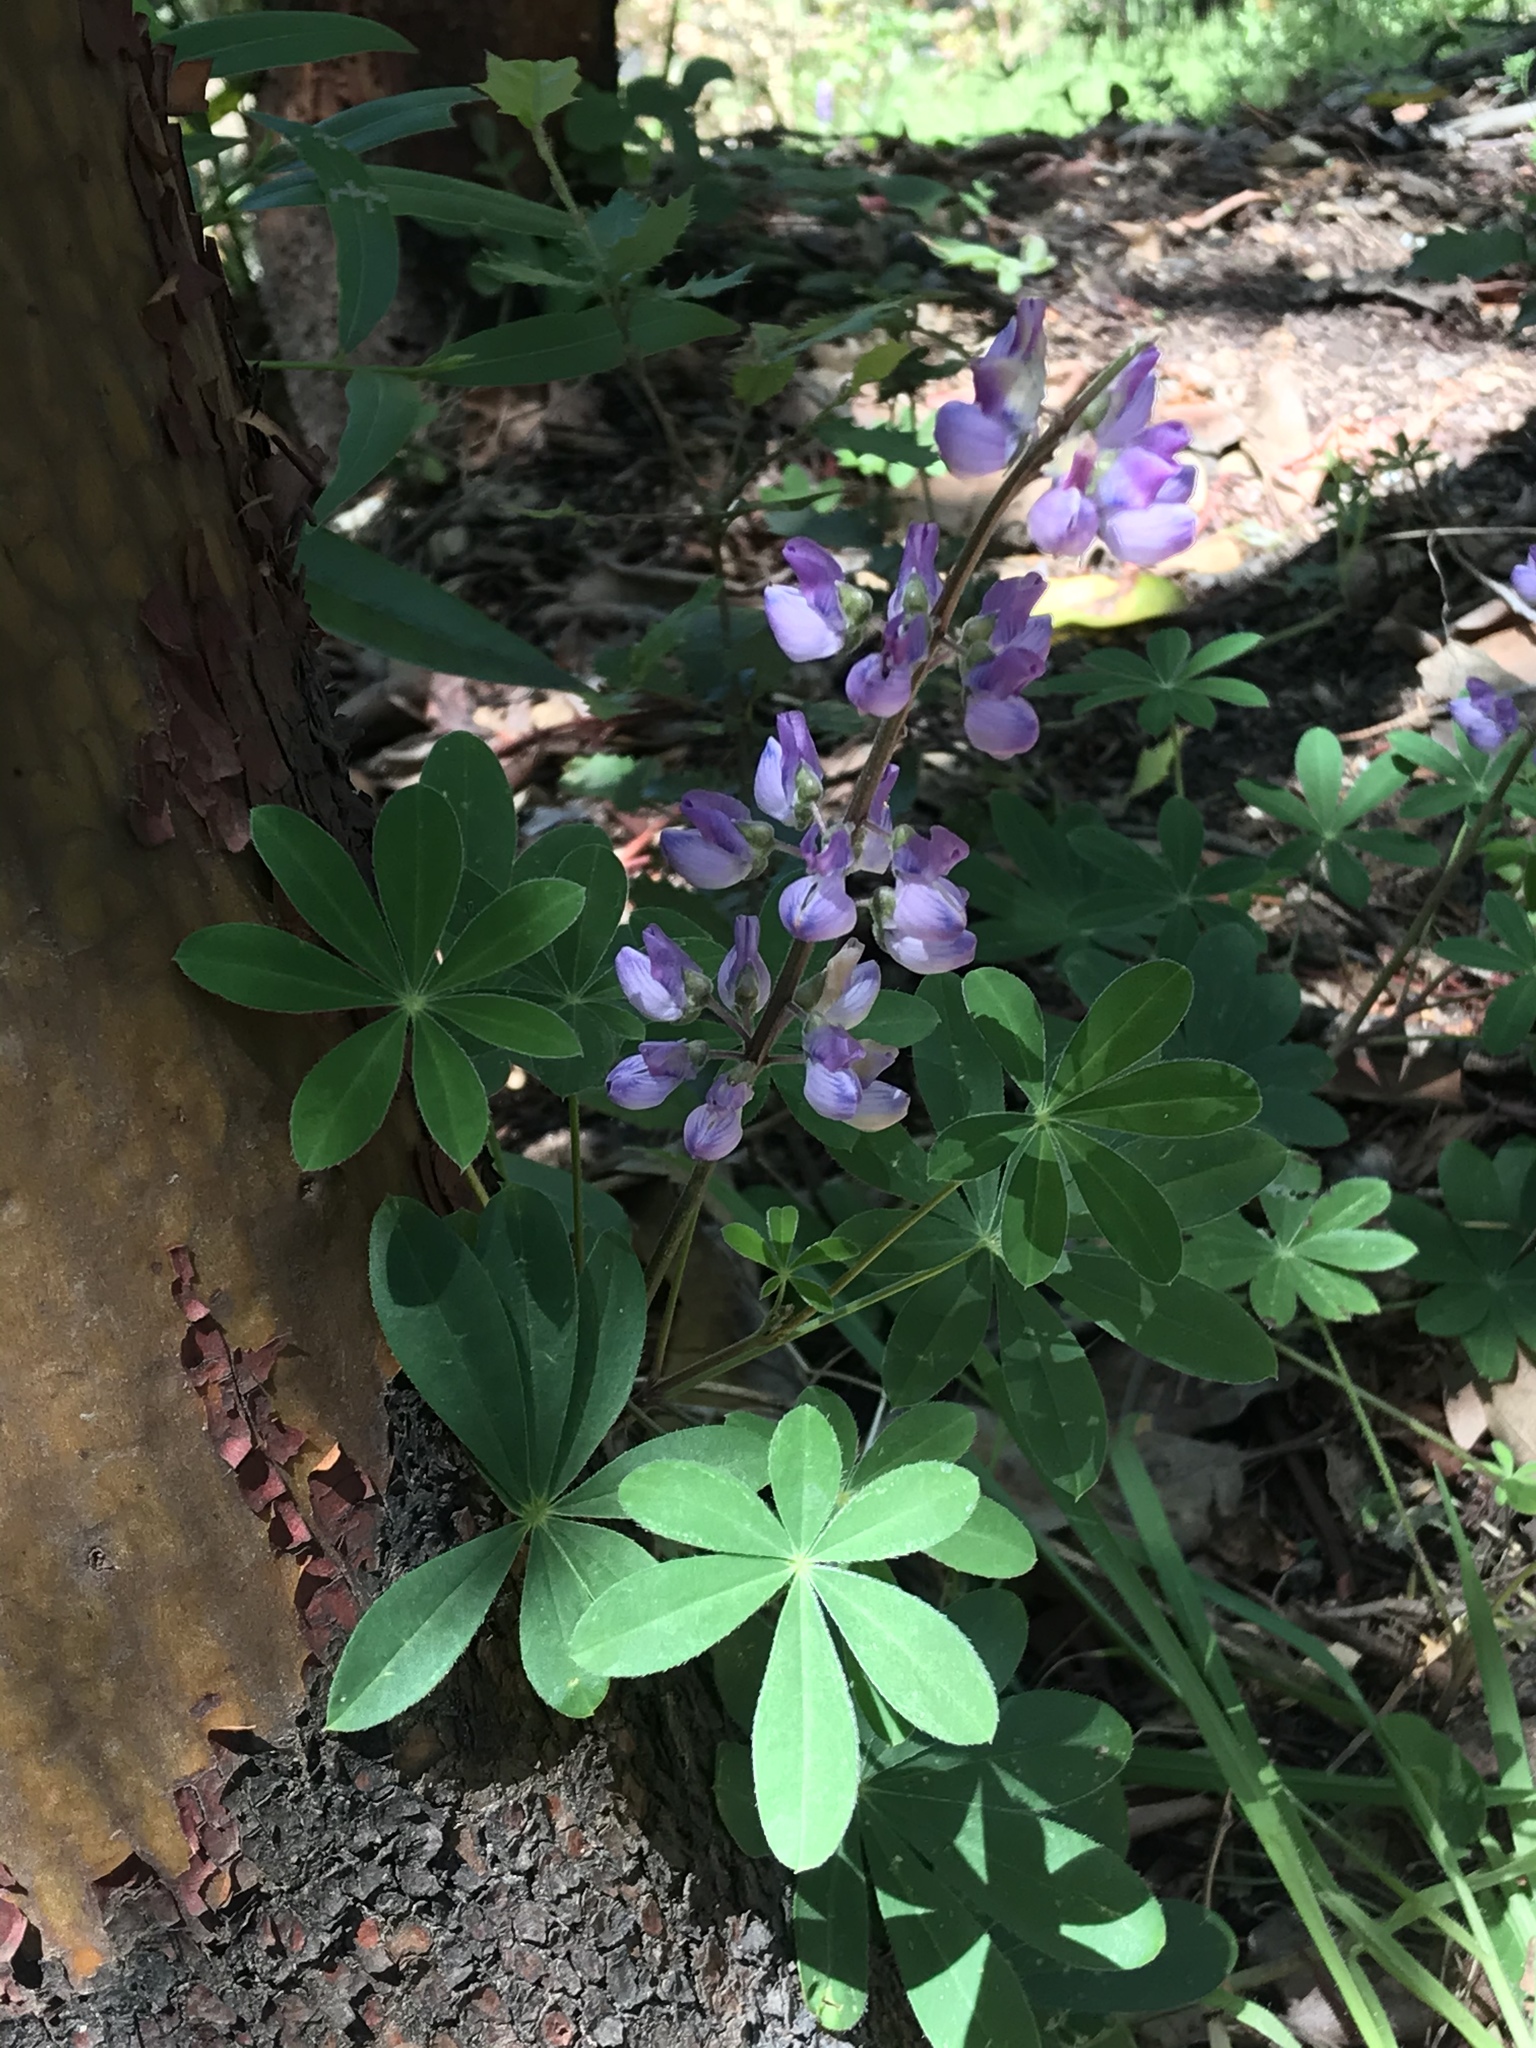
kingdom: Plantae
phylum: Tracheophyta
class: Magnoliopsida
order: Fabales
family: Fabaceae
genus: Lupinus
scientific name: Lupinus latifolius
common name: Broad-leaved lupine
